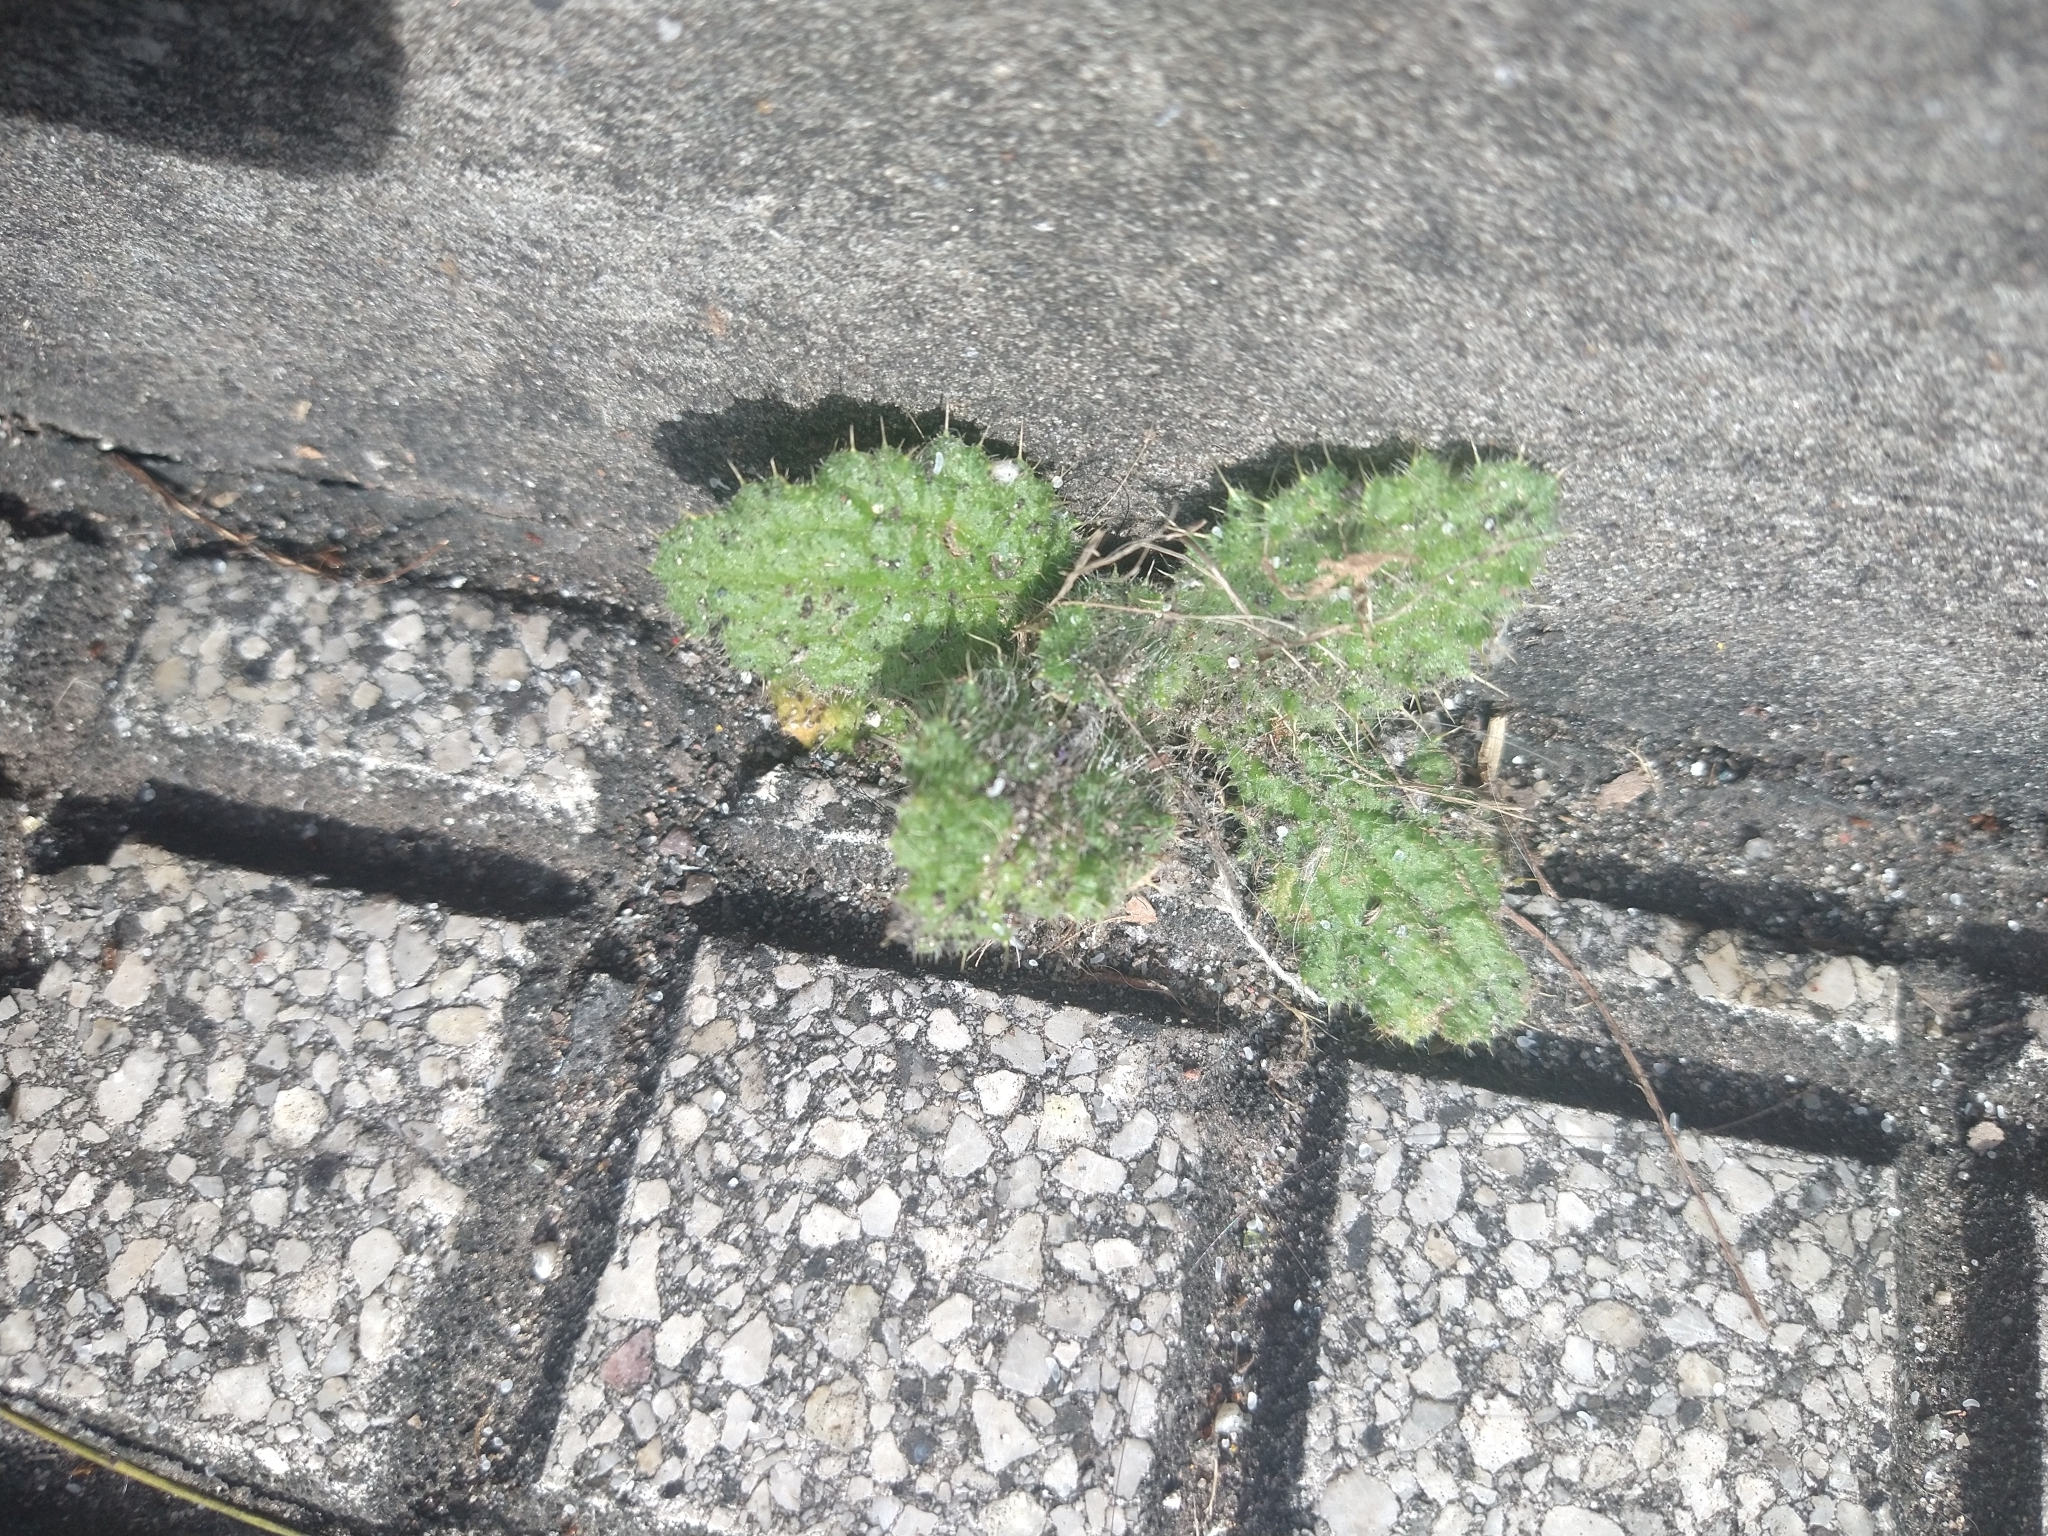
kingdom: Plantae
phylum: Tracheophyta
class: Magnoliopsida
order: Asterales
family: Asteraceae
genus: Cirsium
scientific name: Cirsium vulgare
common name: Bull thistle
